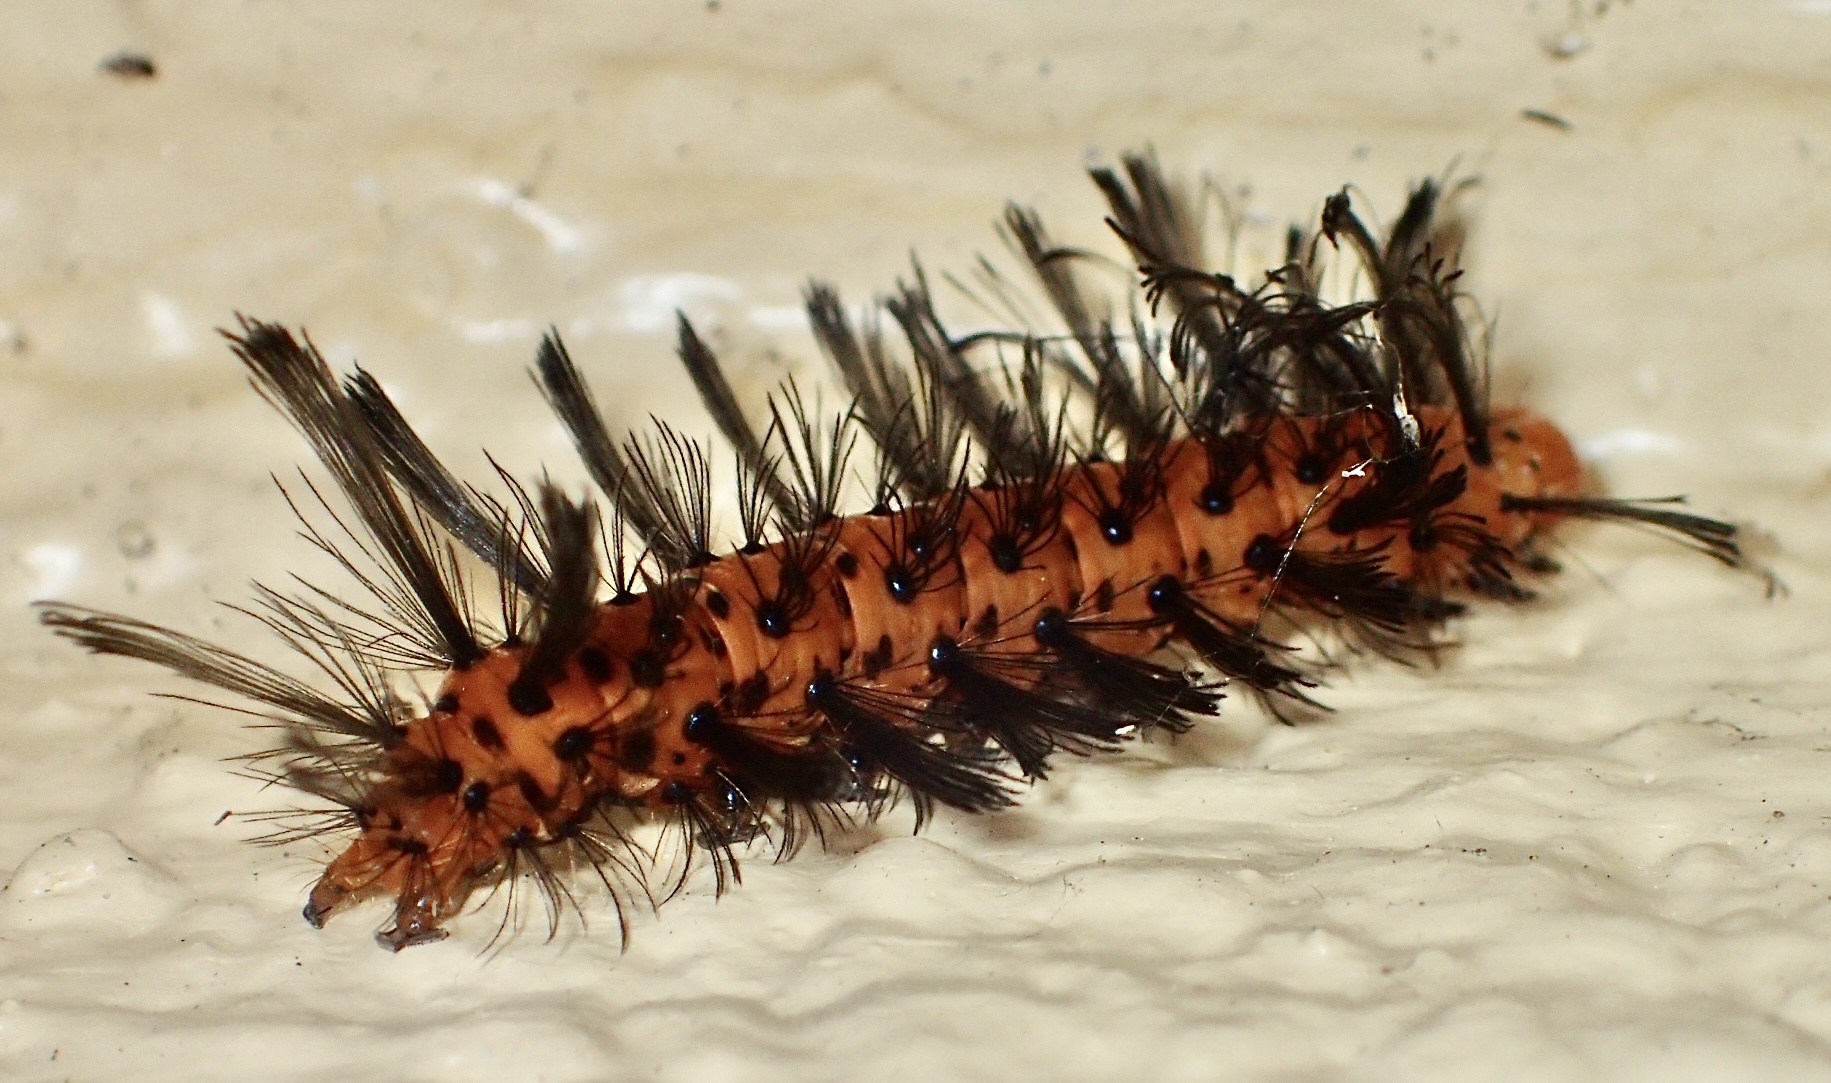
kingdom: Animalia
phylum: Arthropoda
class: Insecta
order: Lepidoptera
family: Erebidae
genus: Syntomeida
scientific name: Syntomeida epilais
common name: Polka-dot wasp moth
